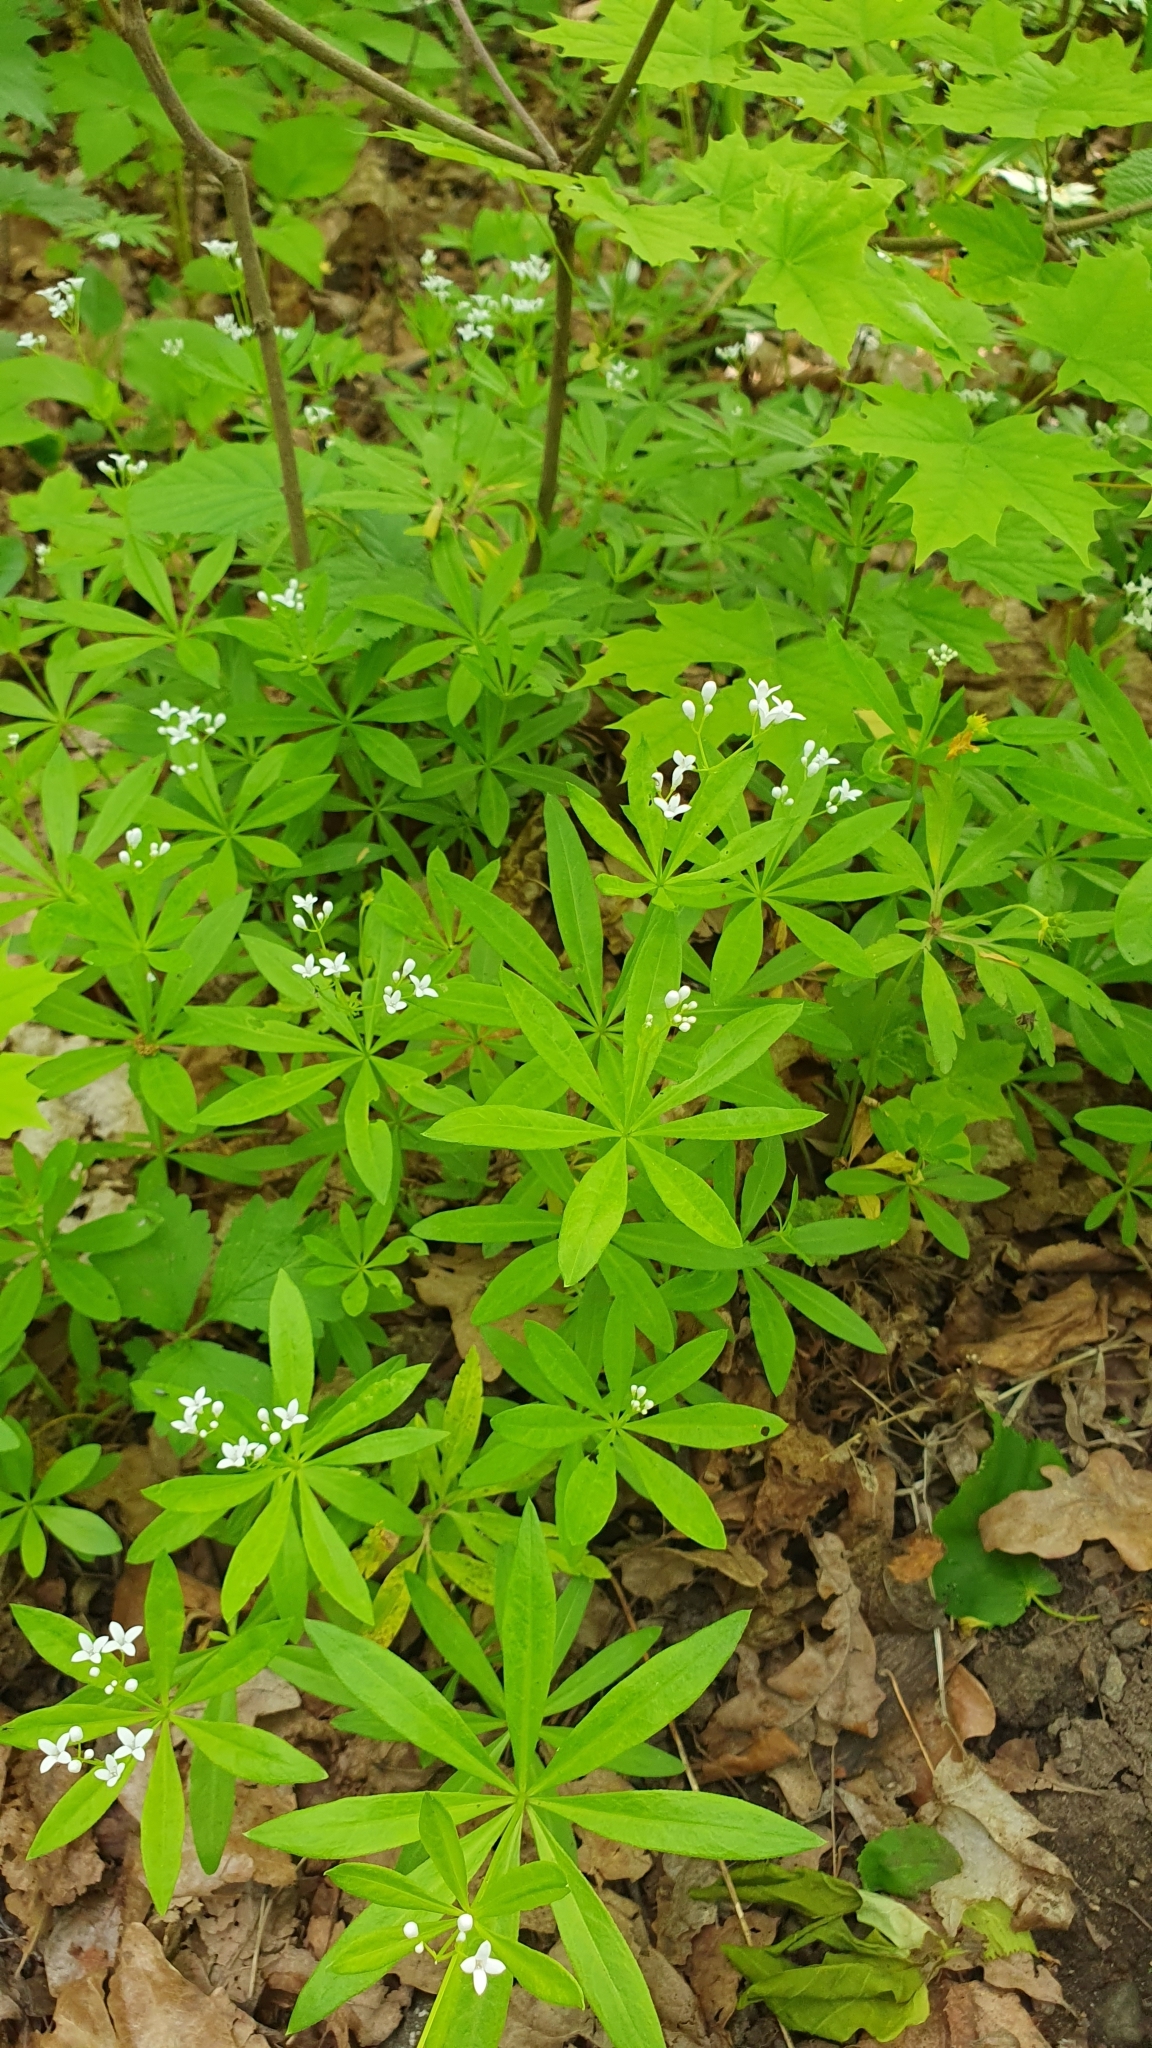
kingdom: Plantae
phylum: Tracheophyta
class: Magnoliopsida
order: Gentianales
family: Rubiaceae
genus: Galium
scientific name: Galium odoratum
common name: Sweet woodruff
